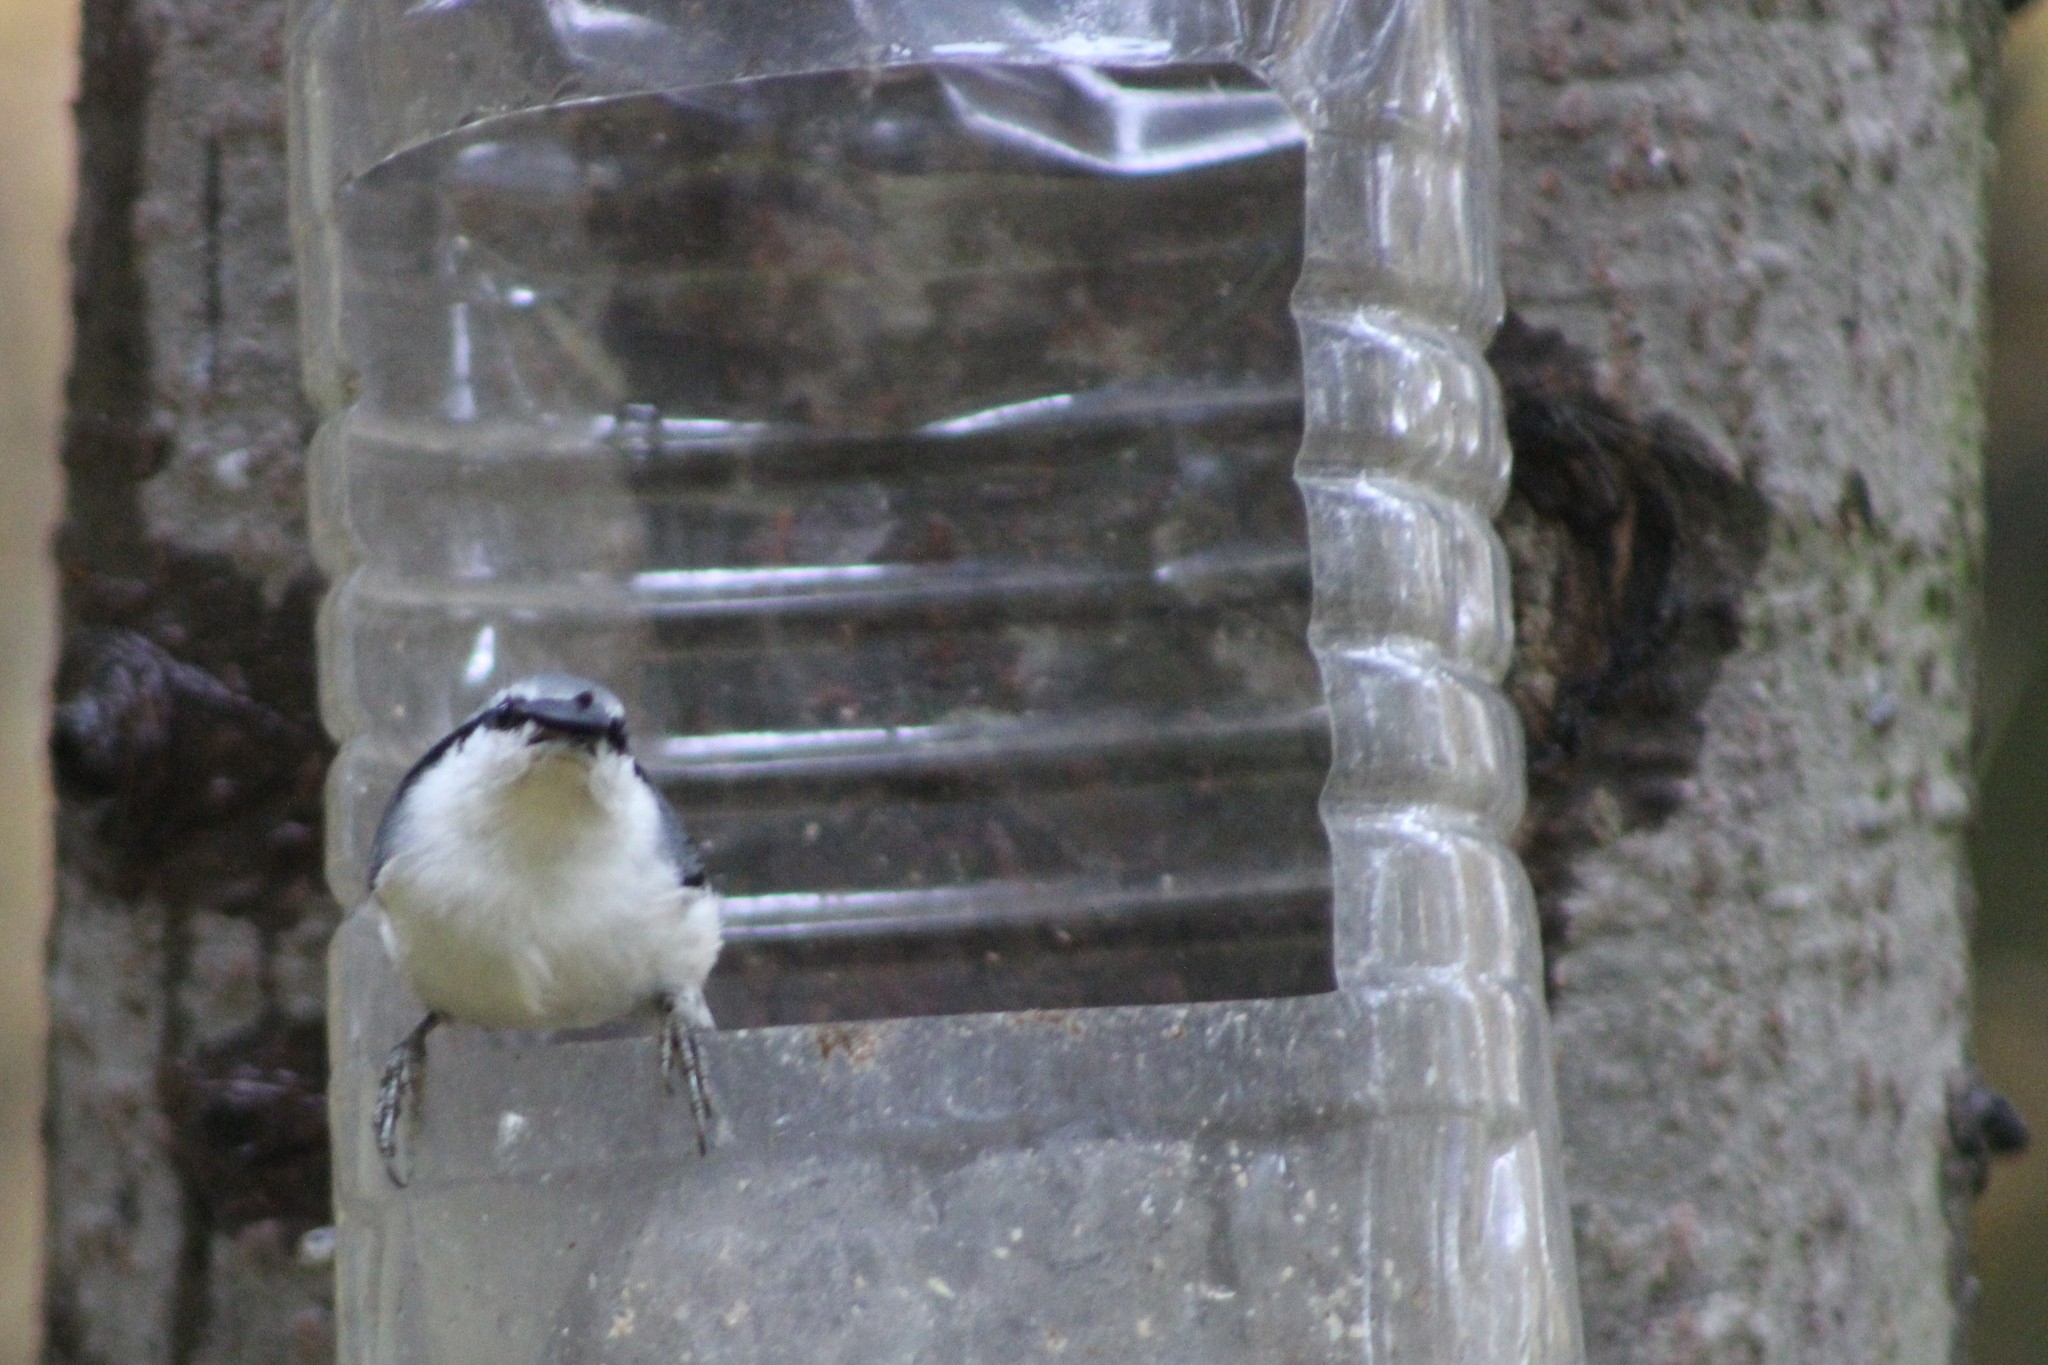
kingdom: Animalia
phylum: Chordata
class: Aves
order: Passeriformes
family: Sittidae
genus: Sitta
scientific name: Sitta europaea
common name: Eurasian nuthatch
